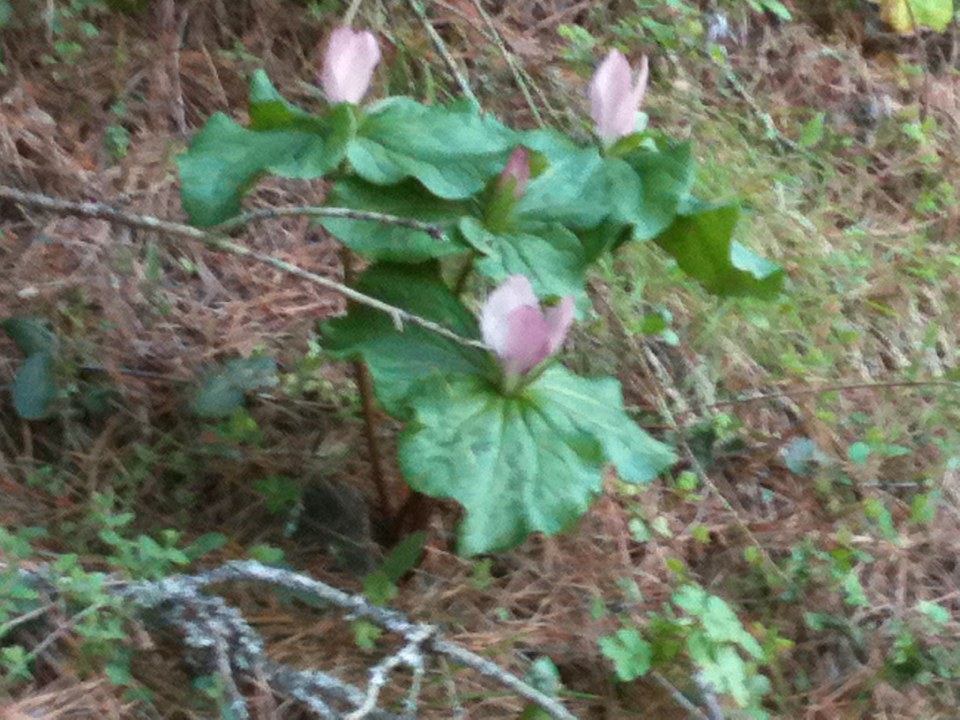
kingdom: Plantae
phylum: Tracheophyta
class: Liliopsida
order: Liliales
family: Melanthiaceae
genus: Trillium
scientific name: Trillium chloropetalum
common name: Giant trillium
